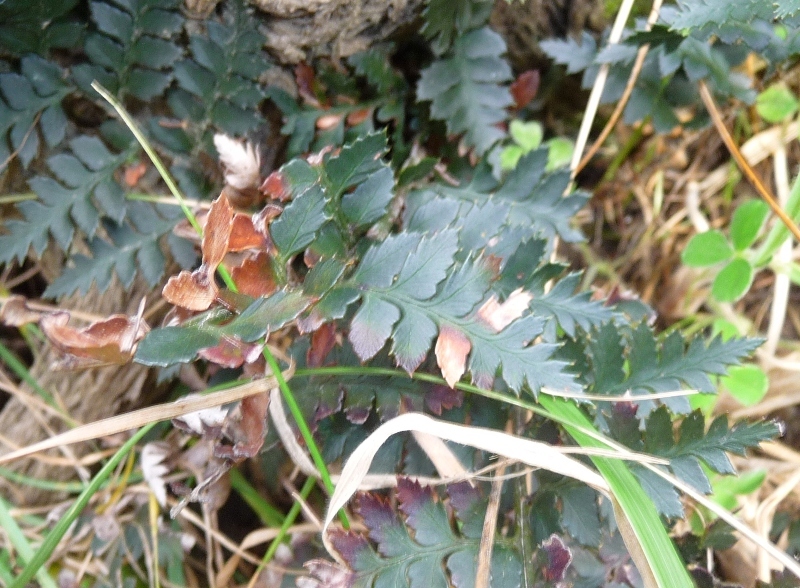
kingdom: Plantae
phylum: Tracheophyta
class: Polypodiopsida
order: Polypodiales
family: Dryopteridaceae
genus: Polystichum
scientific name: Polystichum oculatum
